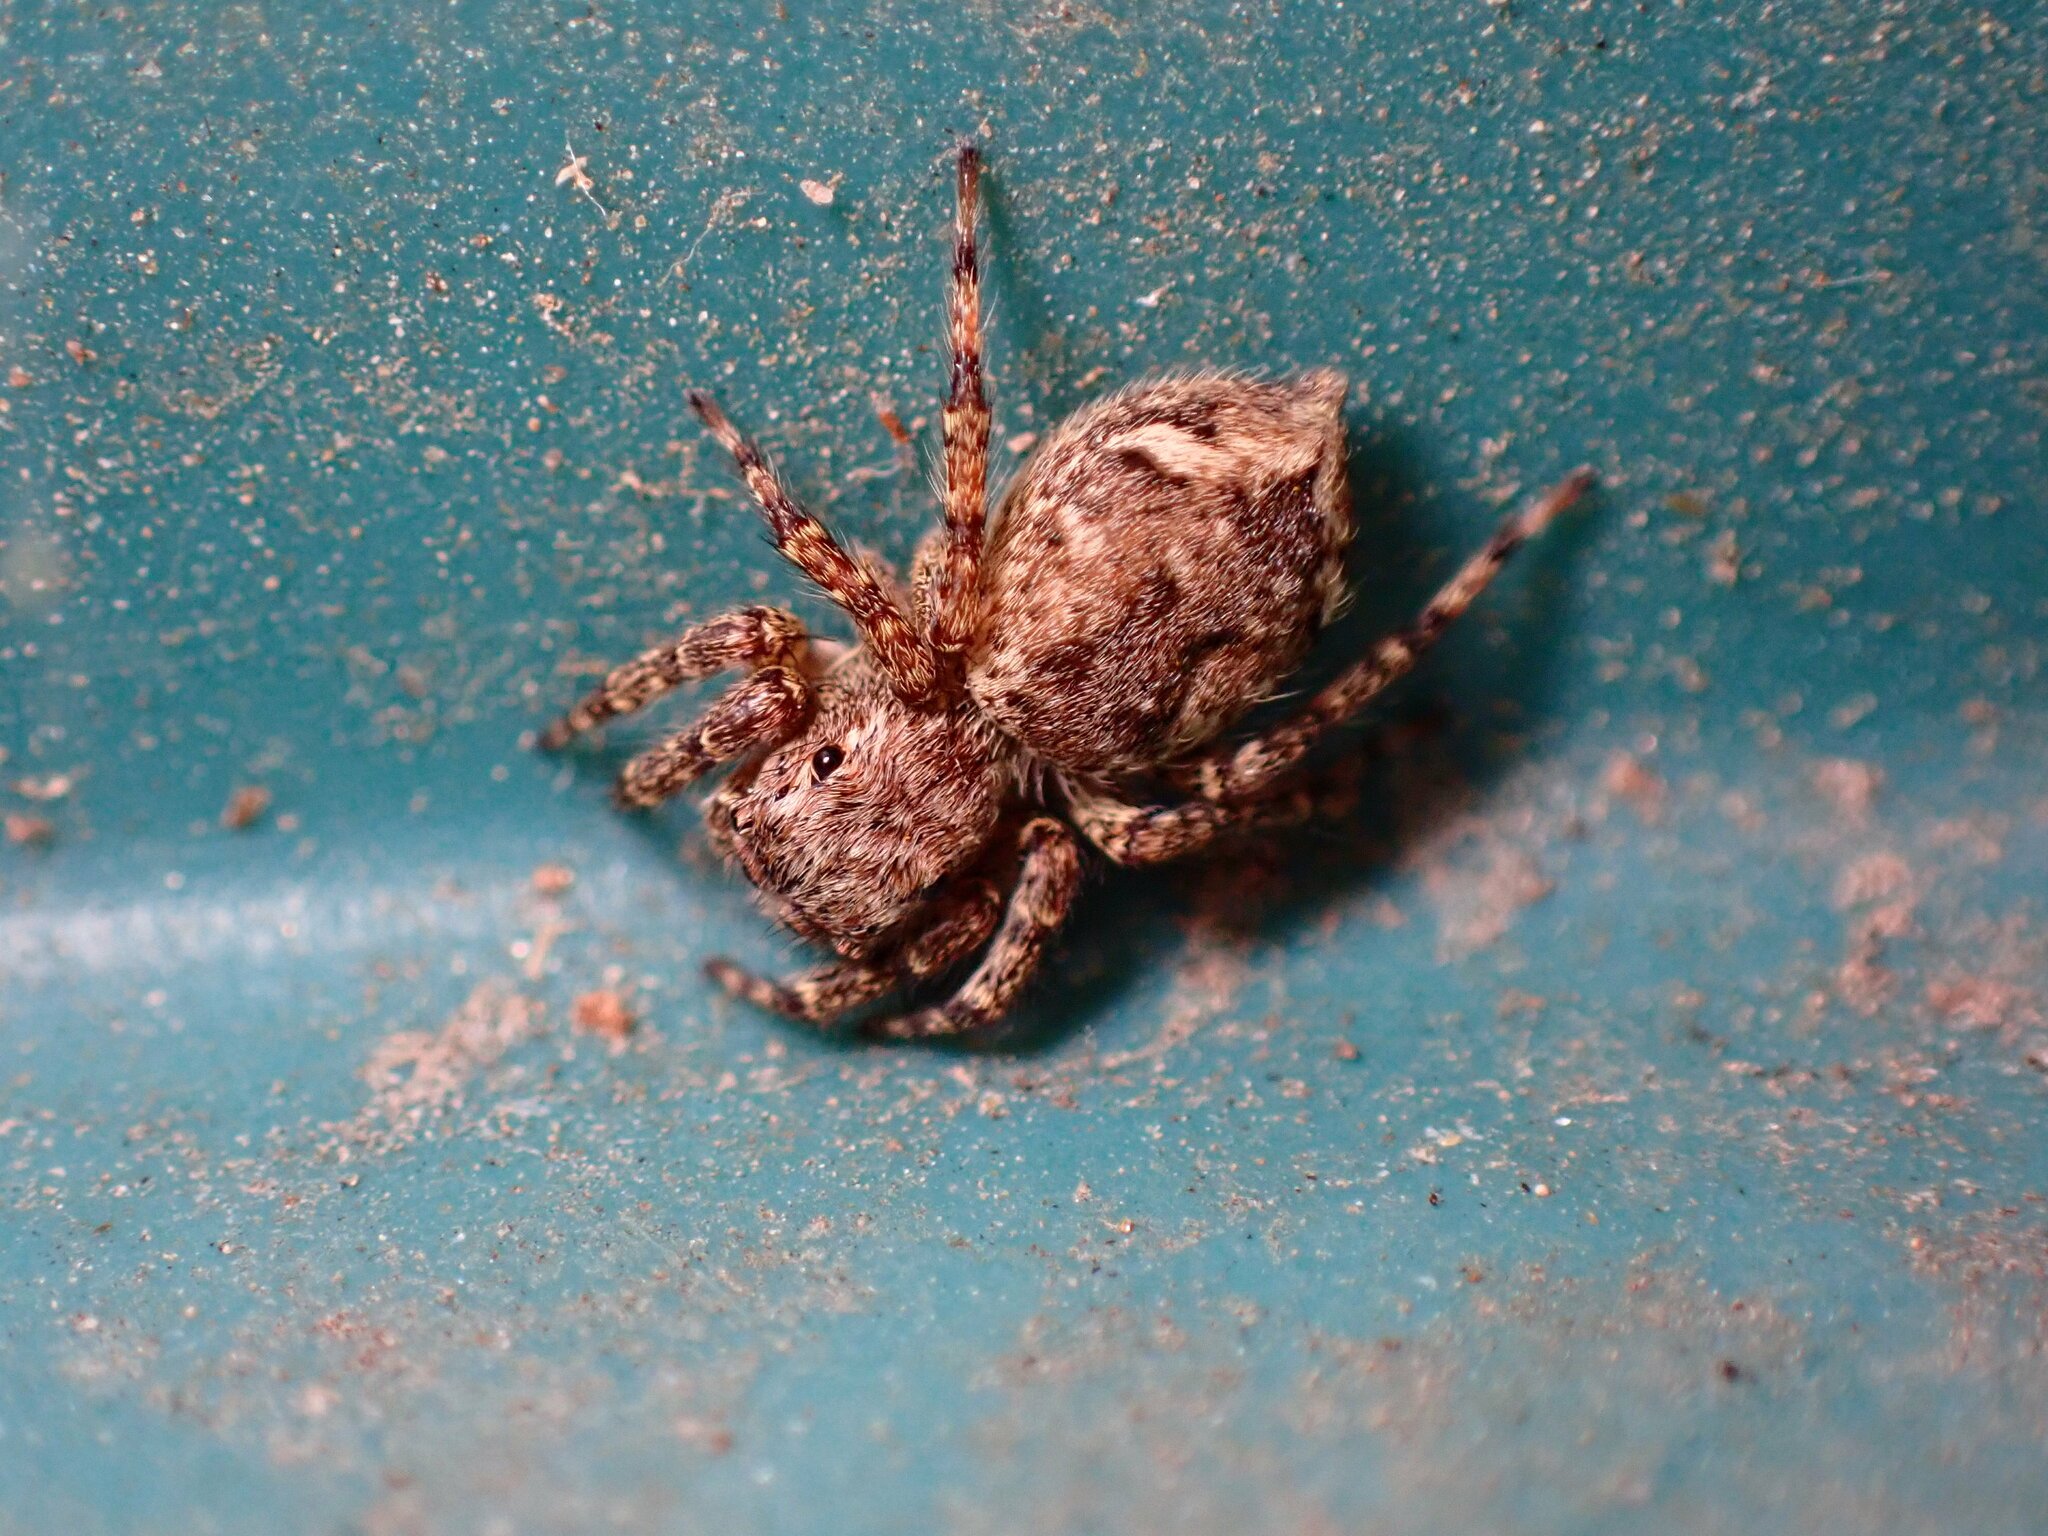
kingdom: Animalia
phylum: Arthropoda
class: Arachnida
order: Araneae
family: Salticidae
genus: Mexigonus
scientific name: Mexigonus minutus
